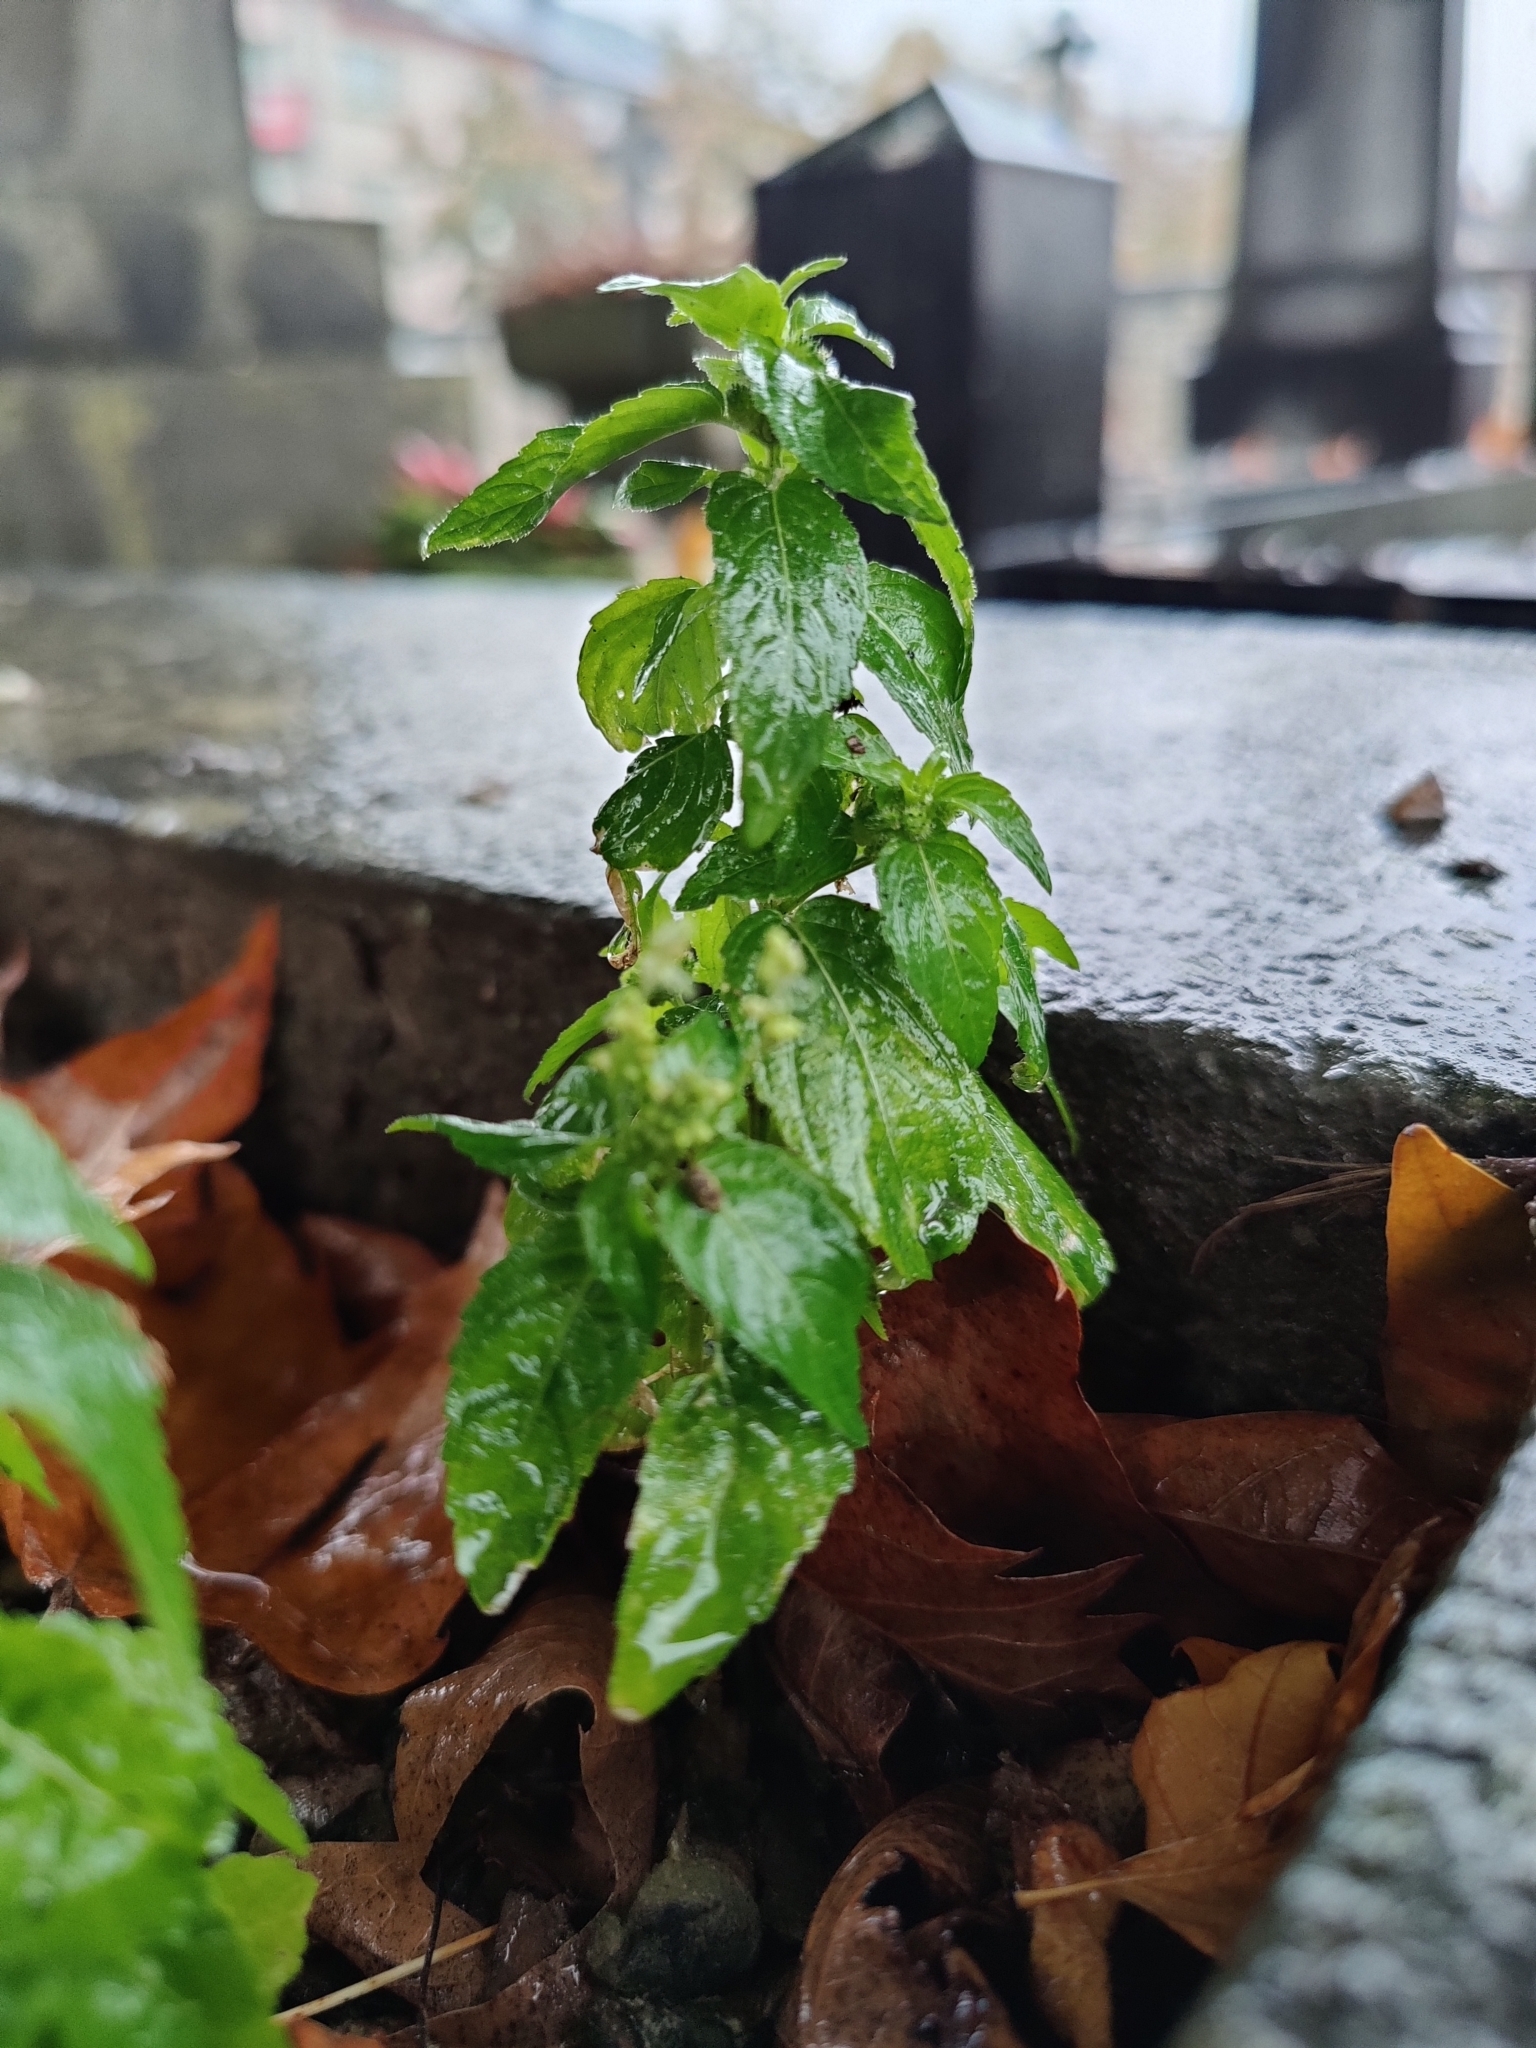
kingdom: Plantae
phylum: Tracheophyta
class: Magnoliopsida
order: Malpighiales
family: Euphorbiaceae
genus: Mercurialis
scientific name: Mercurialis annua
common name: Annual mercury
